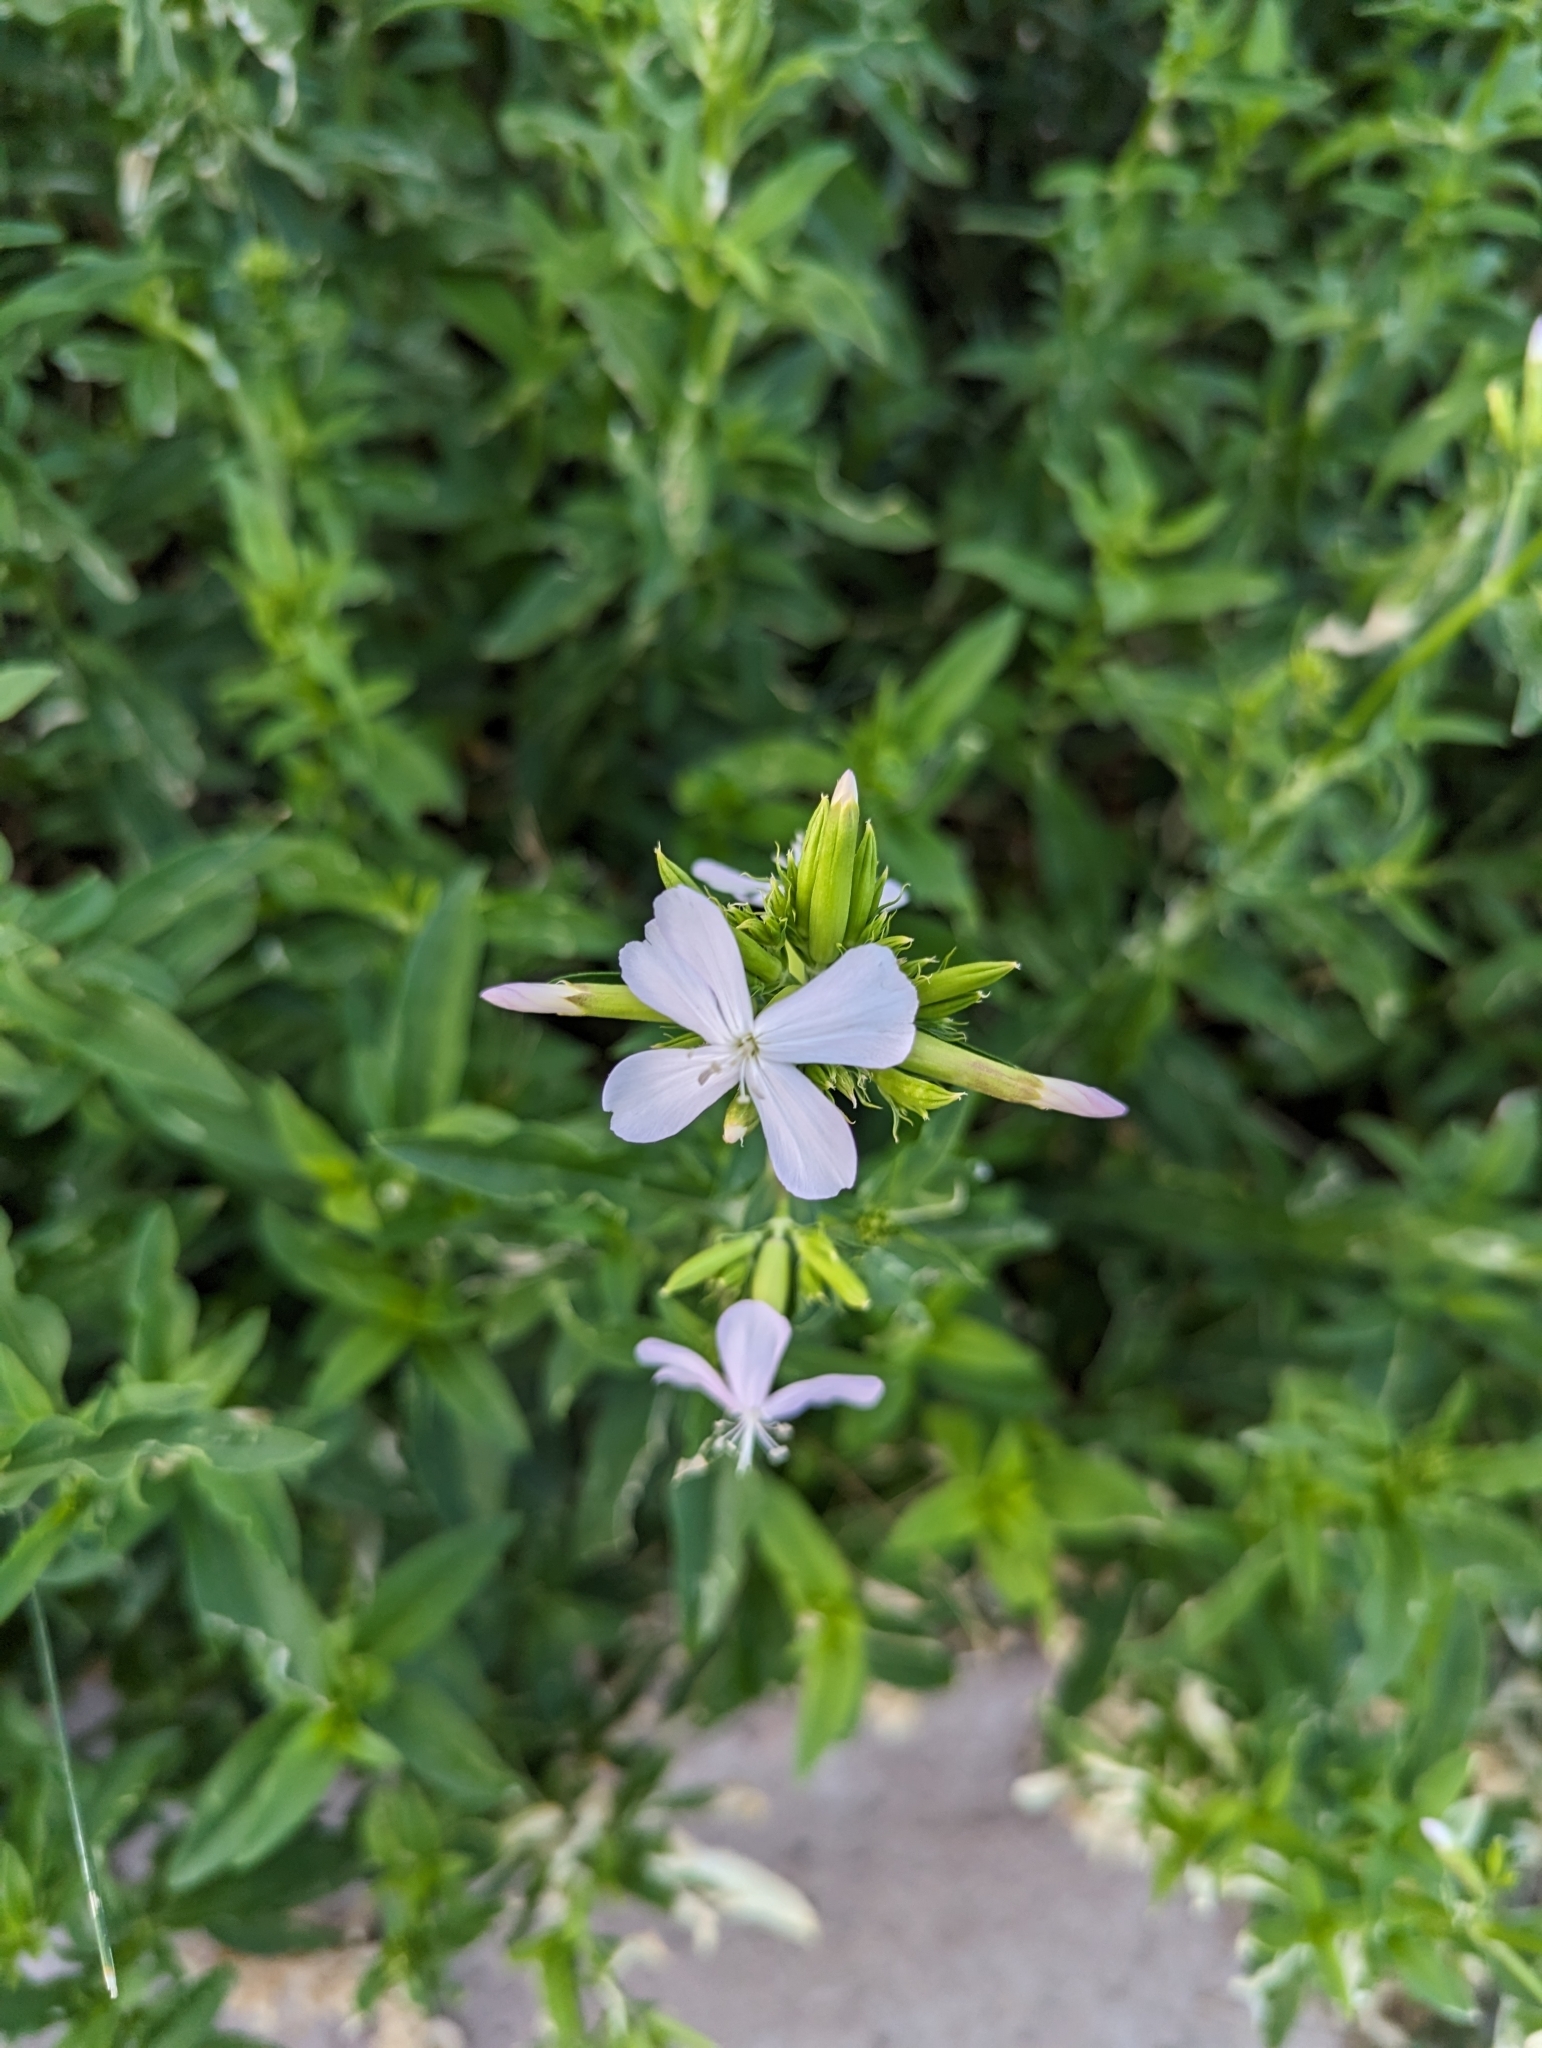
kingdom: Plantae
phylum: Tracheophyta
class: Magnoliopsida
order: Caryophyllales
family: Caryophyllaceae
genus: Saponaria
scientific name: Saponaria officinalis
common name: Soapwort
